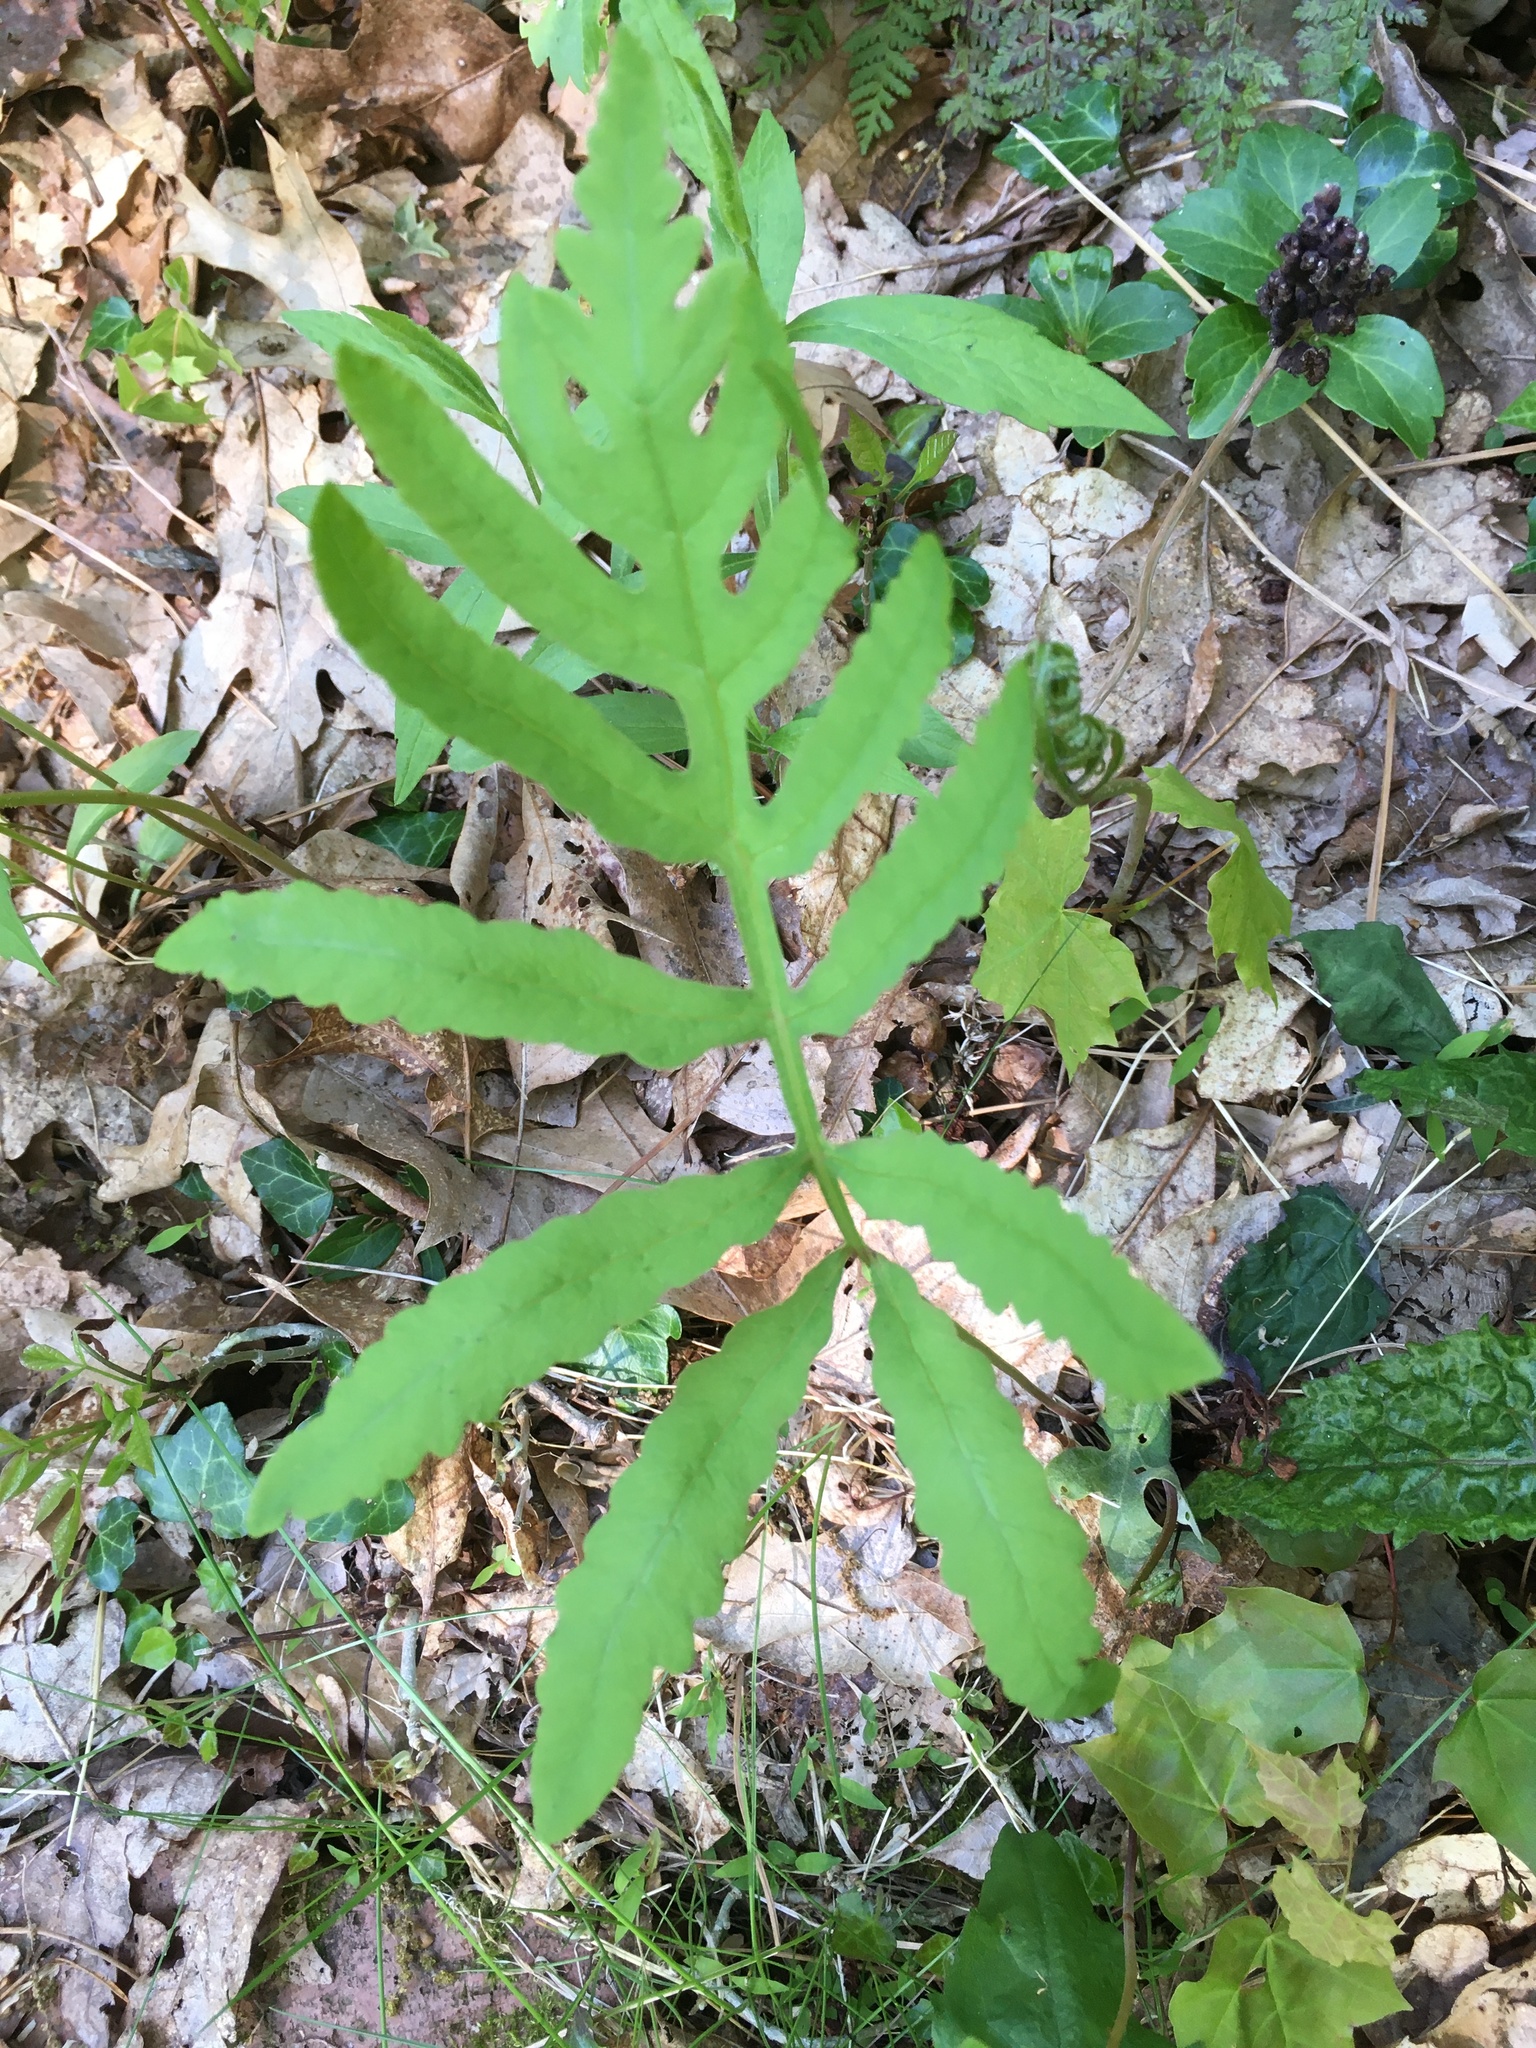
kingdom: Plantae
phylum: Tracheophyta
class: Polypodiopsida
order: Polypodiales
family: Onocleaceae
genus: Onoclea
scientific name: Onoclea sensibilis
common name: Sensitive fern
